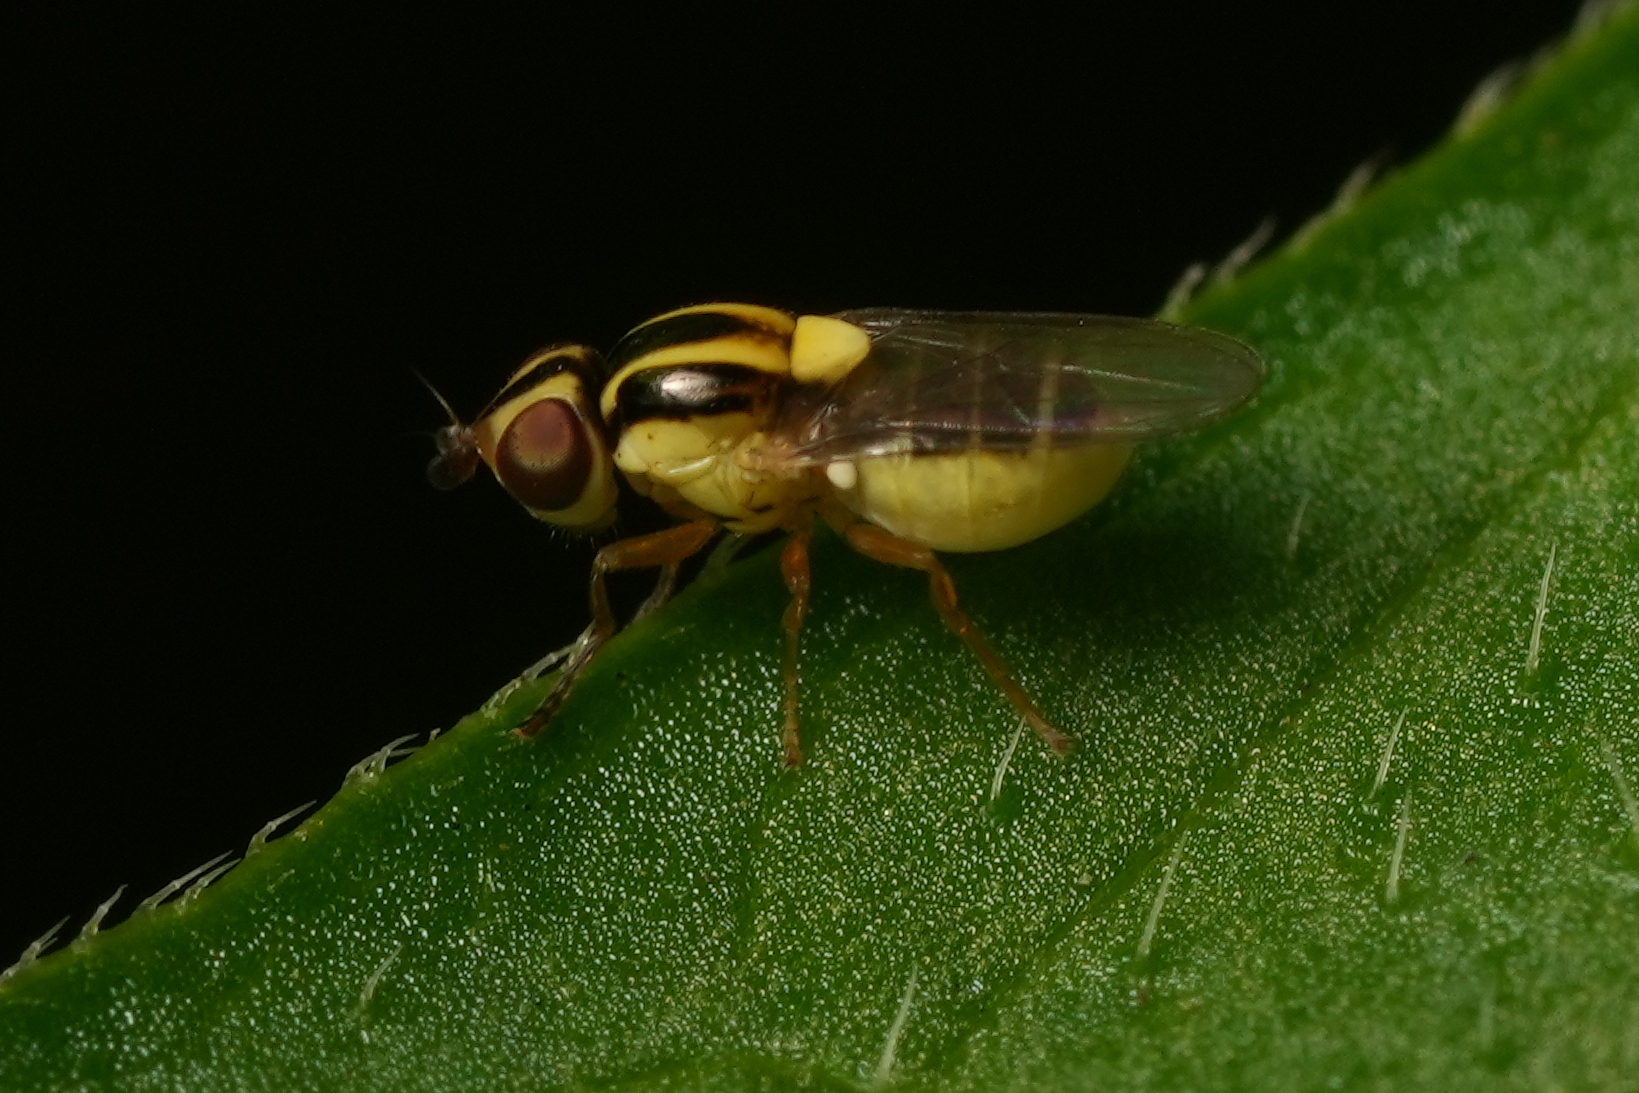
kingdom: Animalia
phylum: Arthropoda
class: Insecta
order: Diptera
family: Chloropidae
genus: Thaumatomyia
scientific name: Thaumatomyia glabra
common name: Chloropid fly
